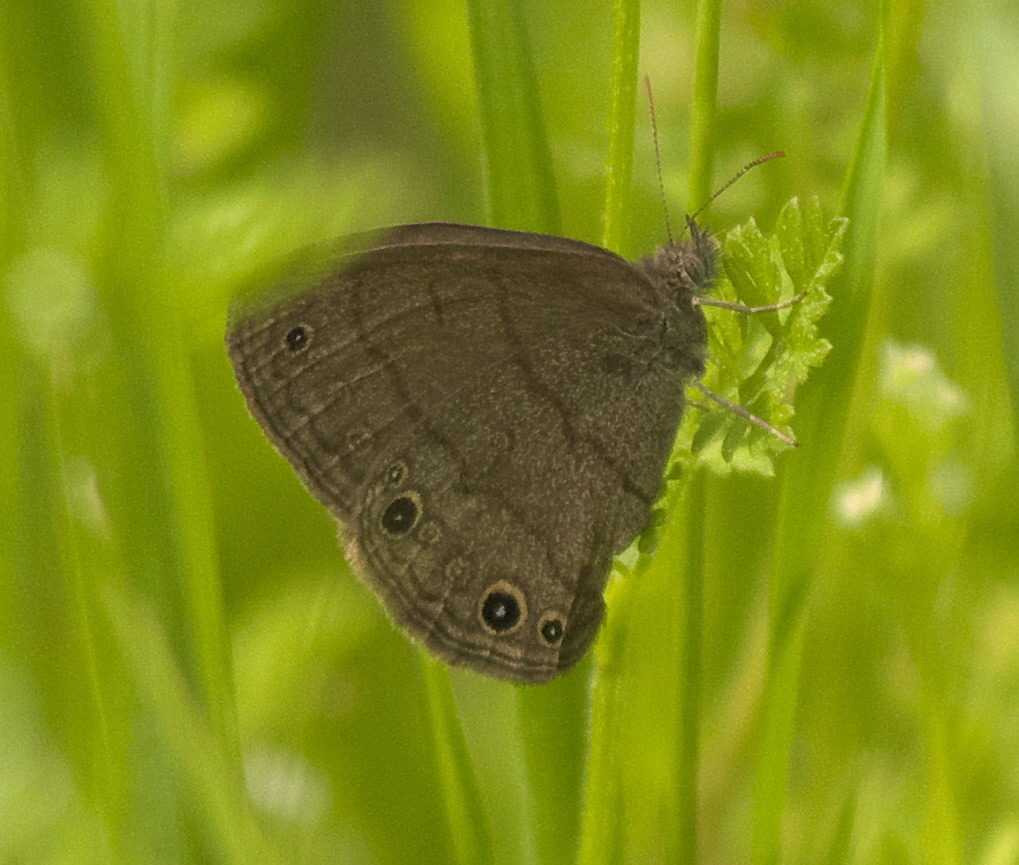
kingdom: Animalia
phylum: Arthropoda
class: Insecta
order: Lepidoptera
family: Nymphalidae
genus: Hermeuptychia
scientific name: Hermeuptychia hermes
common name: Hermes satyr
